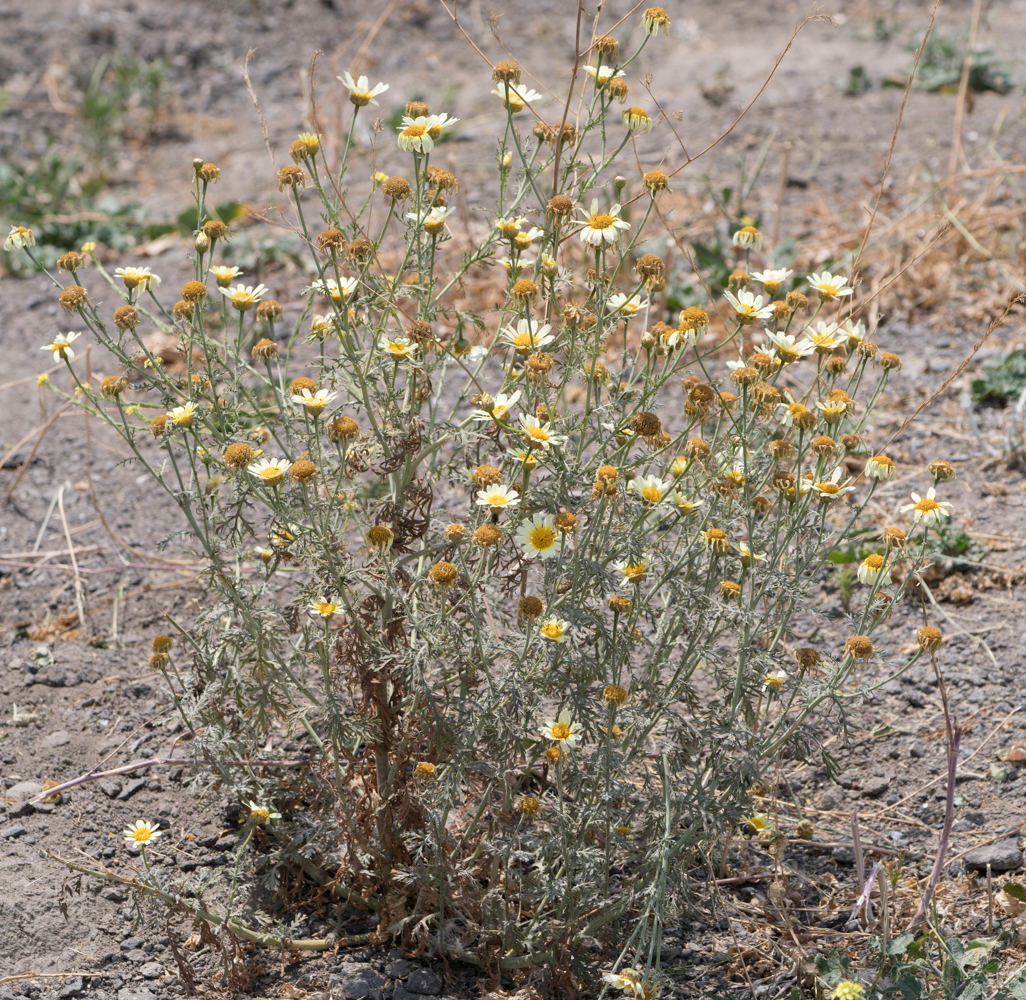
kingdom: Plantae
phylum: Tracheophyta
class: Magnoliopsida
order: Asterales
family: Asteraceae
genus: Glebionis
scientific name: Glebionis coronaria
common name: Crowndaisy
